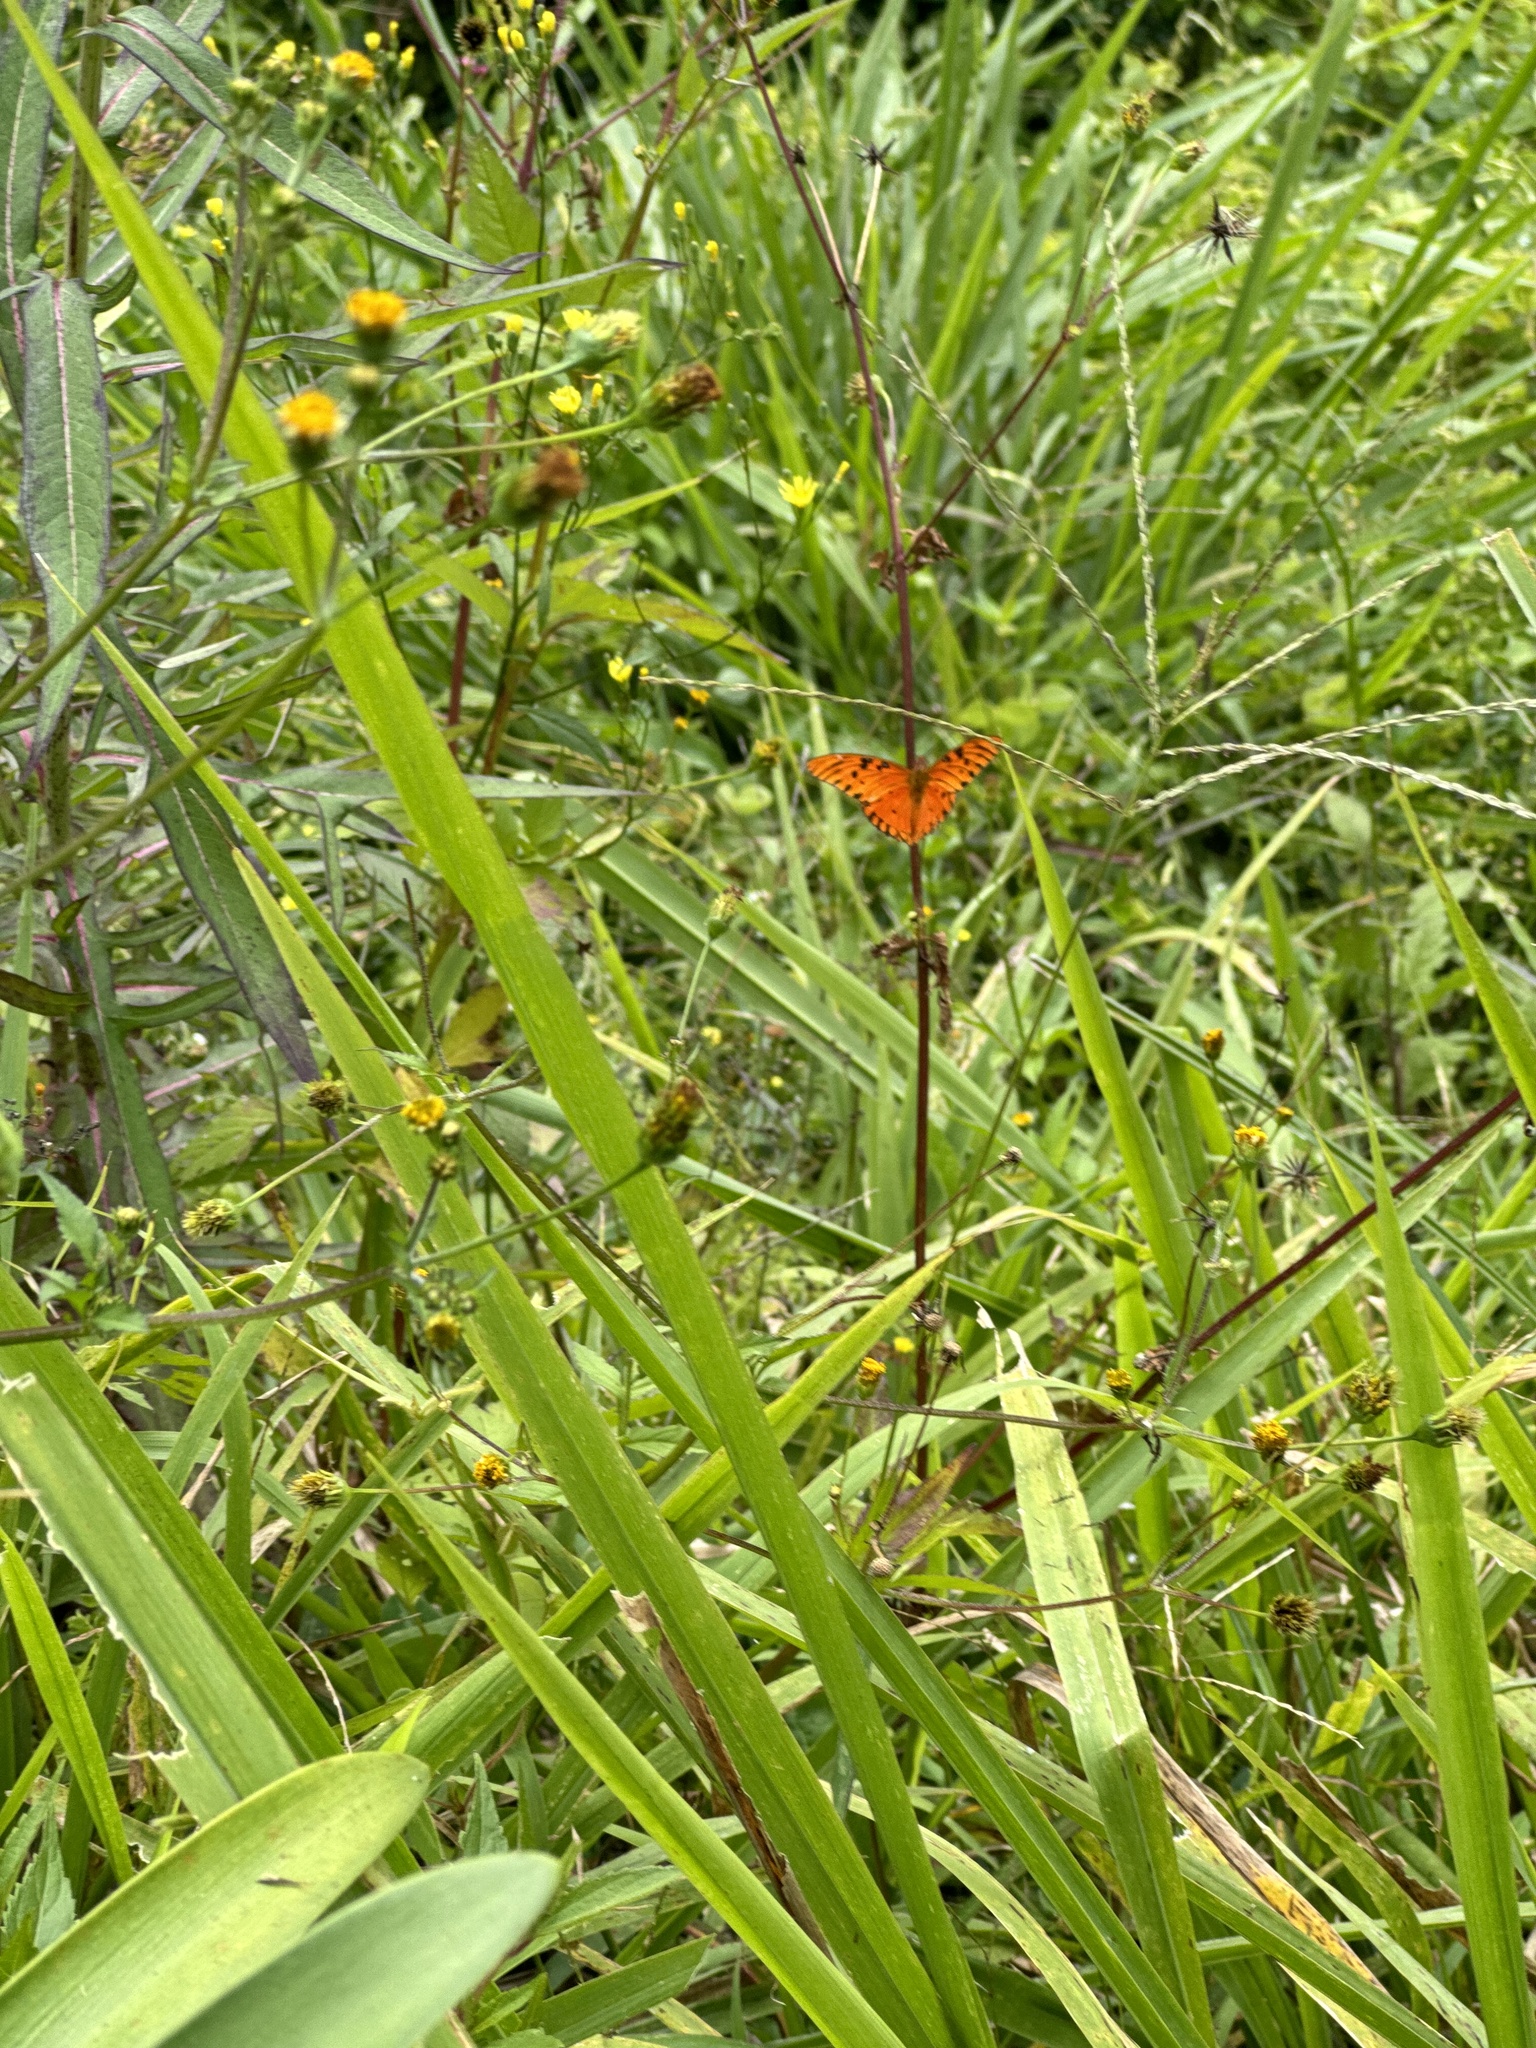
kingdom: Animalia
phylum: Arthropoda
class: Insecta
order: Lepidoptera
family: Nymphalidae
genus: Dione
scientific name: Dione vanillae
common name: Gulf fritillary
